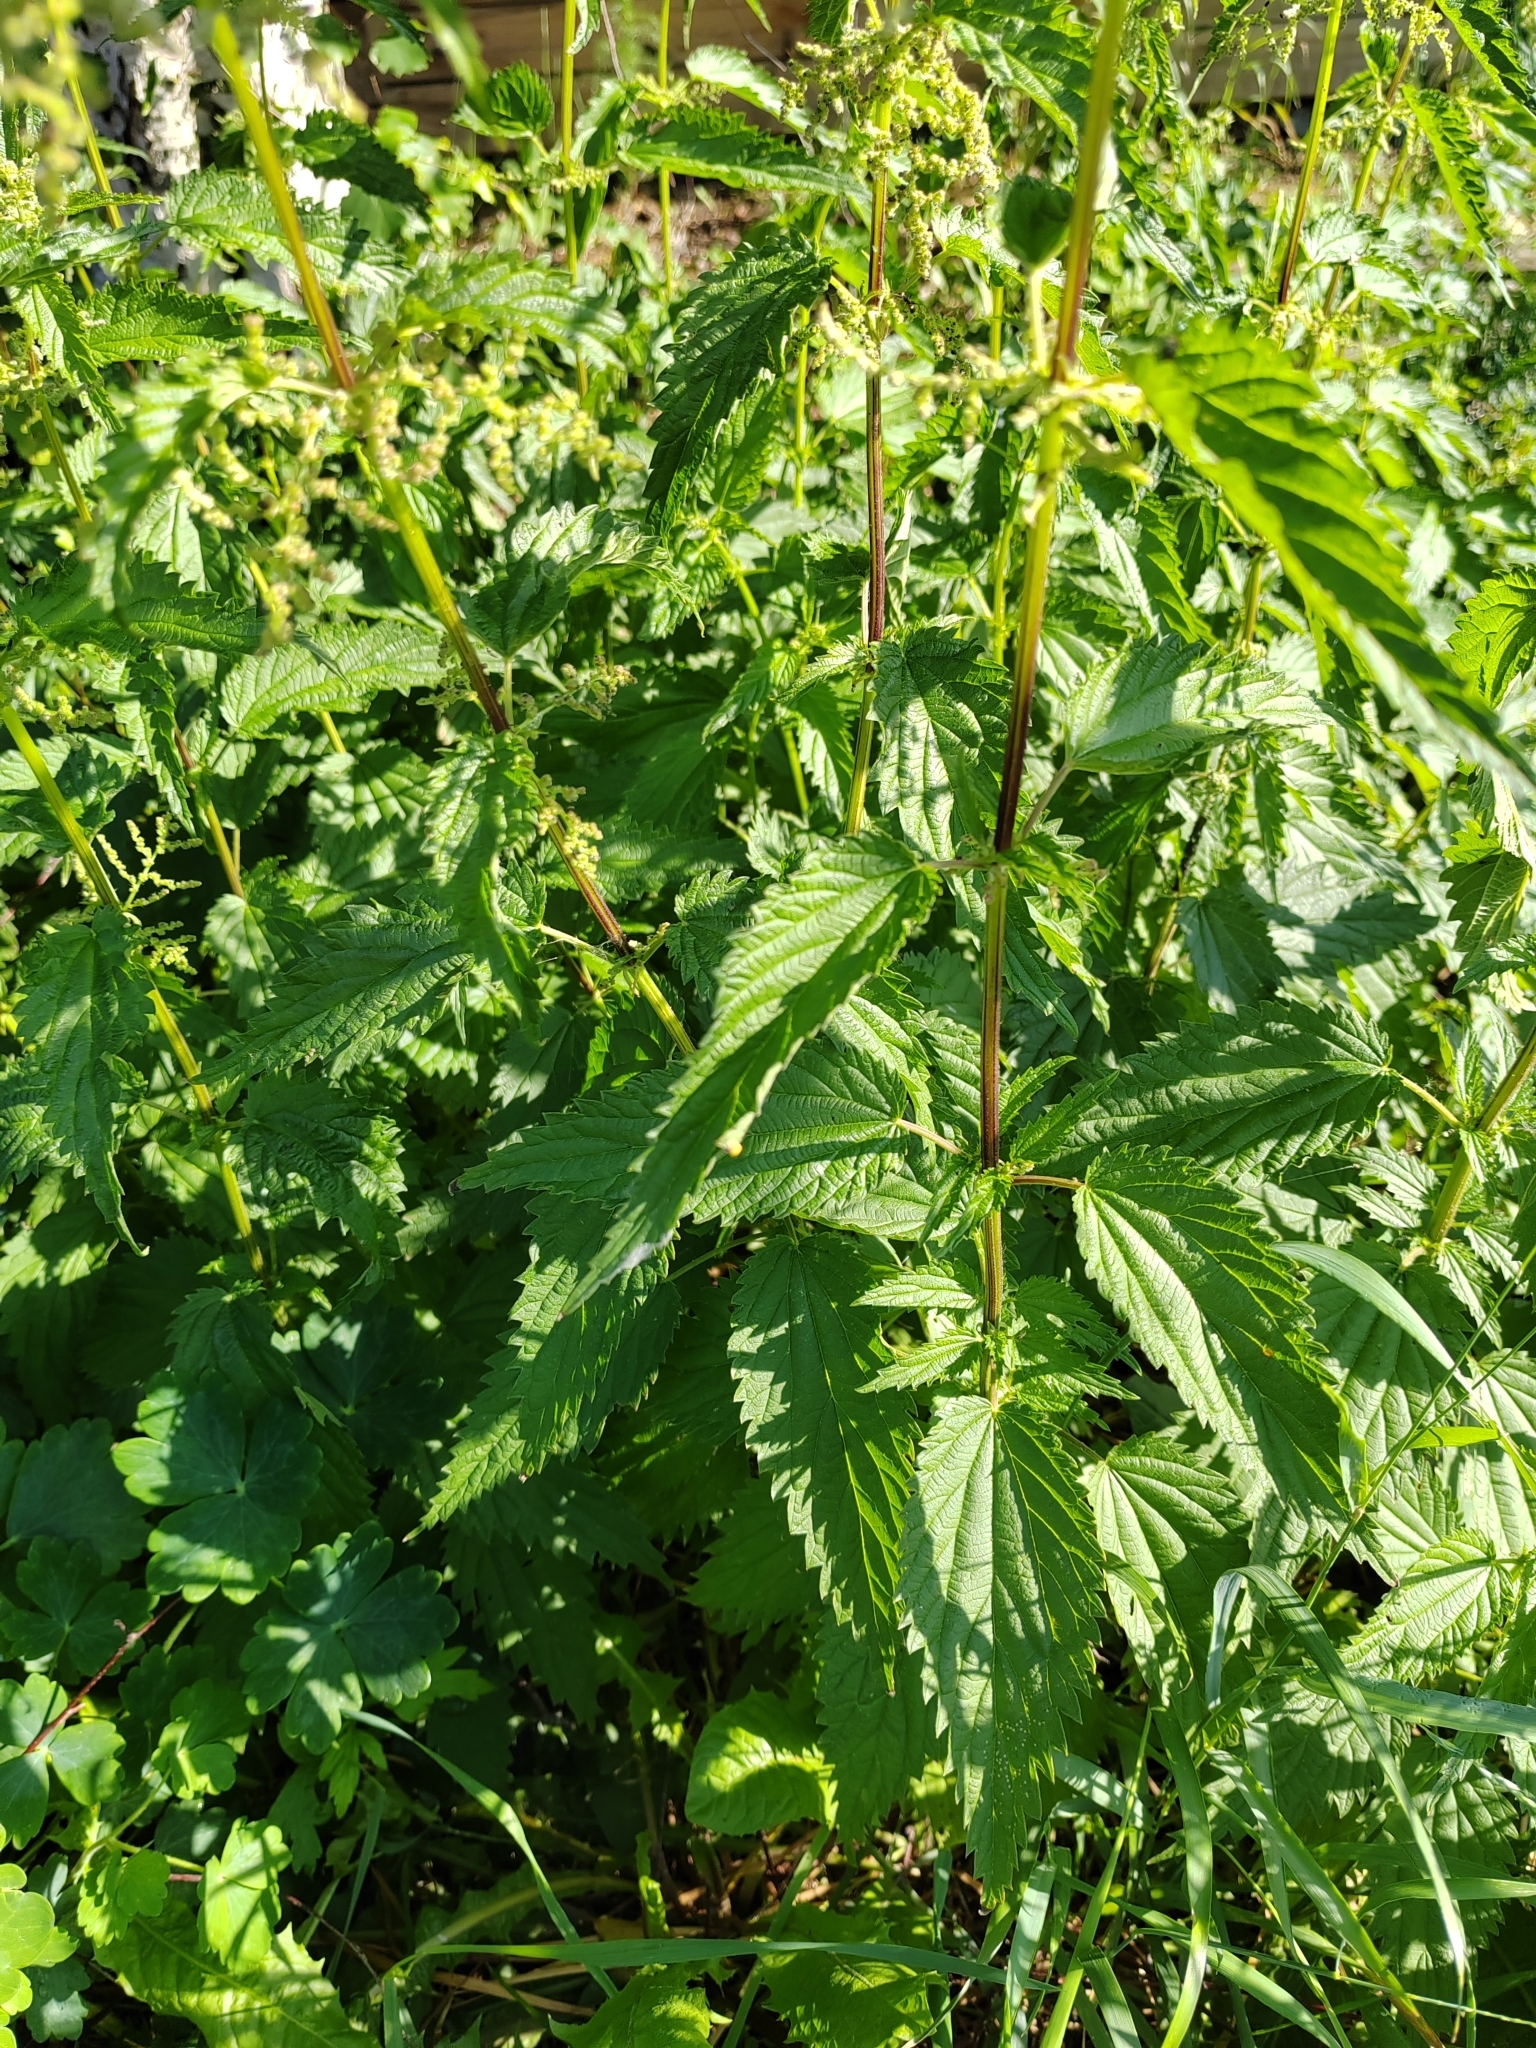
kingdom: Plantae
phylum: Tracheophyta
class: Magnoliopsida
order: Rosales
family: Urticaceae
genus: Urtica
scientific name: Urtica dioica
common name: Common nettle
